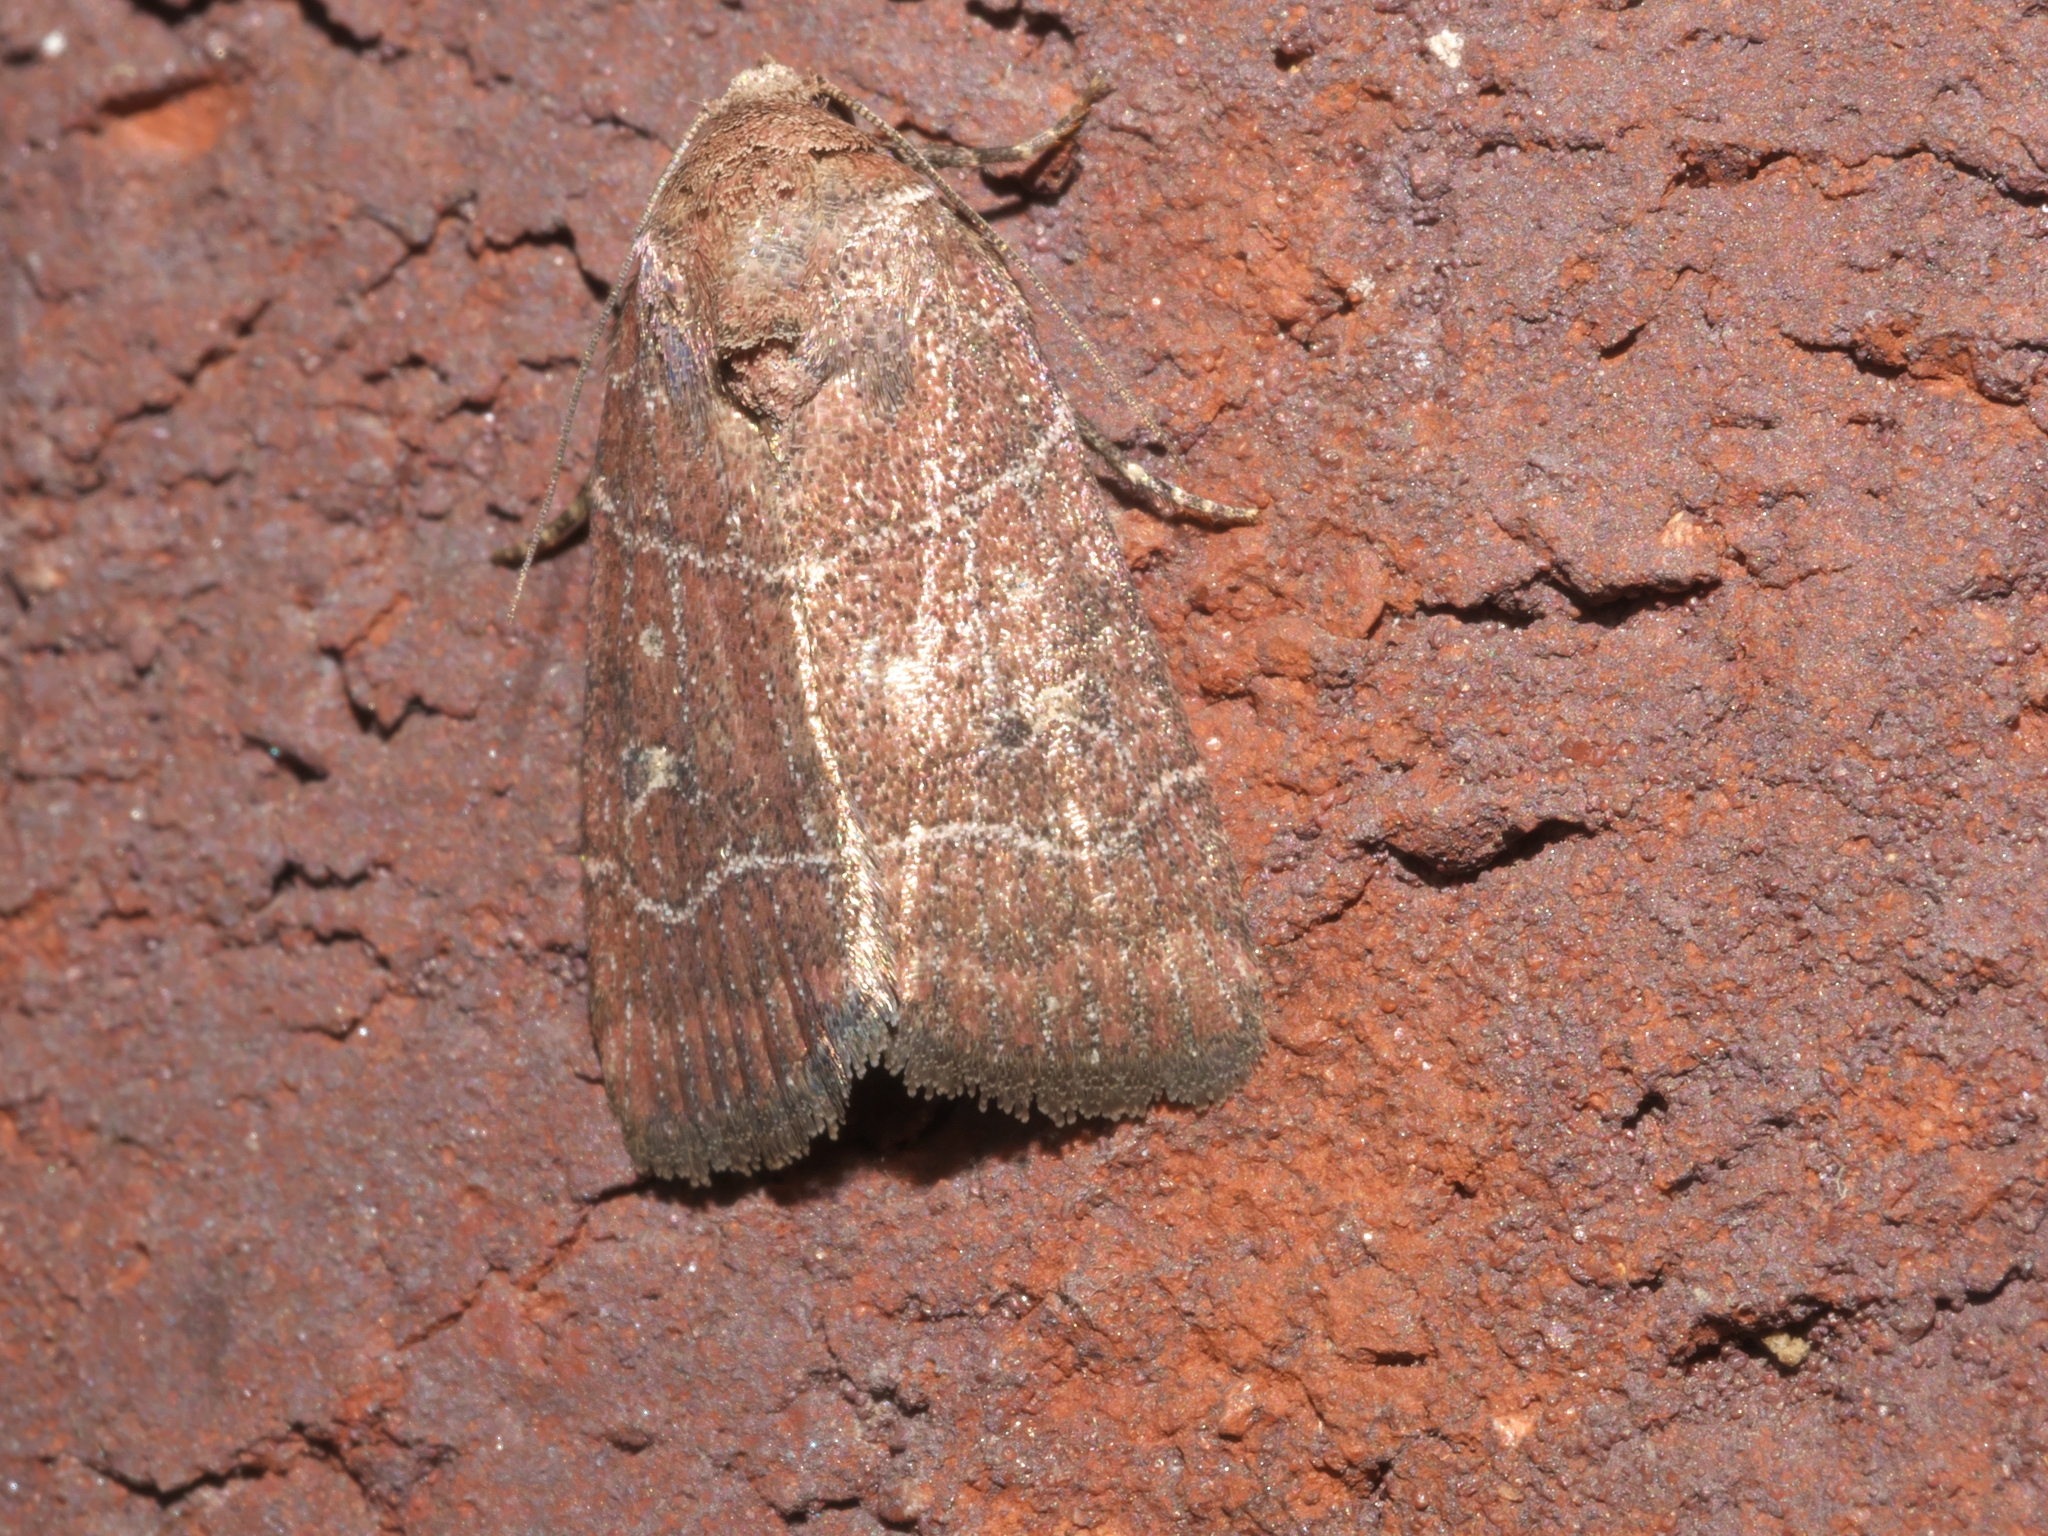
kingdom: Animalia
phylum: Arthropoda
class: Insecta
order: Lepidoptera
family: Noctuidae
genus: Elaphria
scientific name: Elaphria grata
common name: Grateful midget moth
